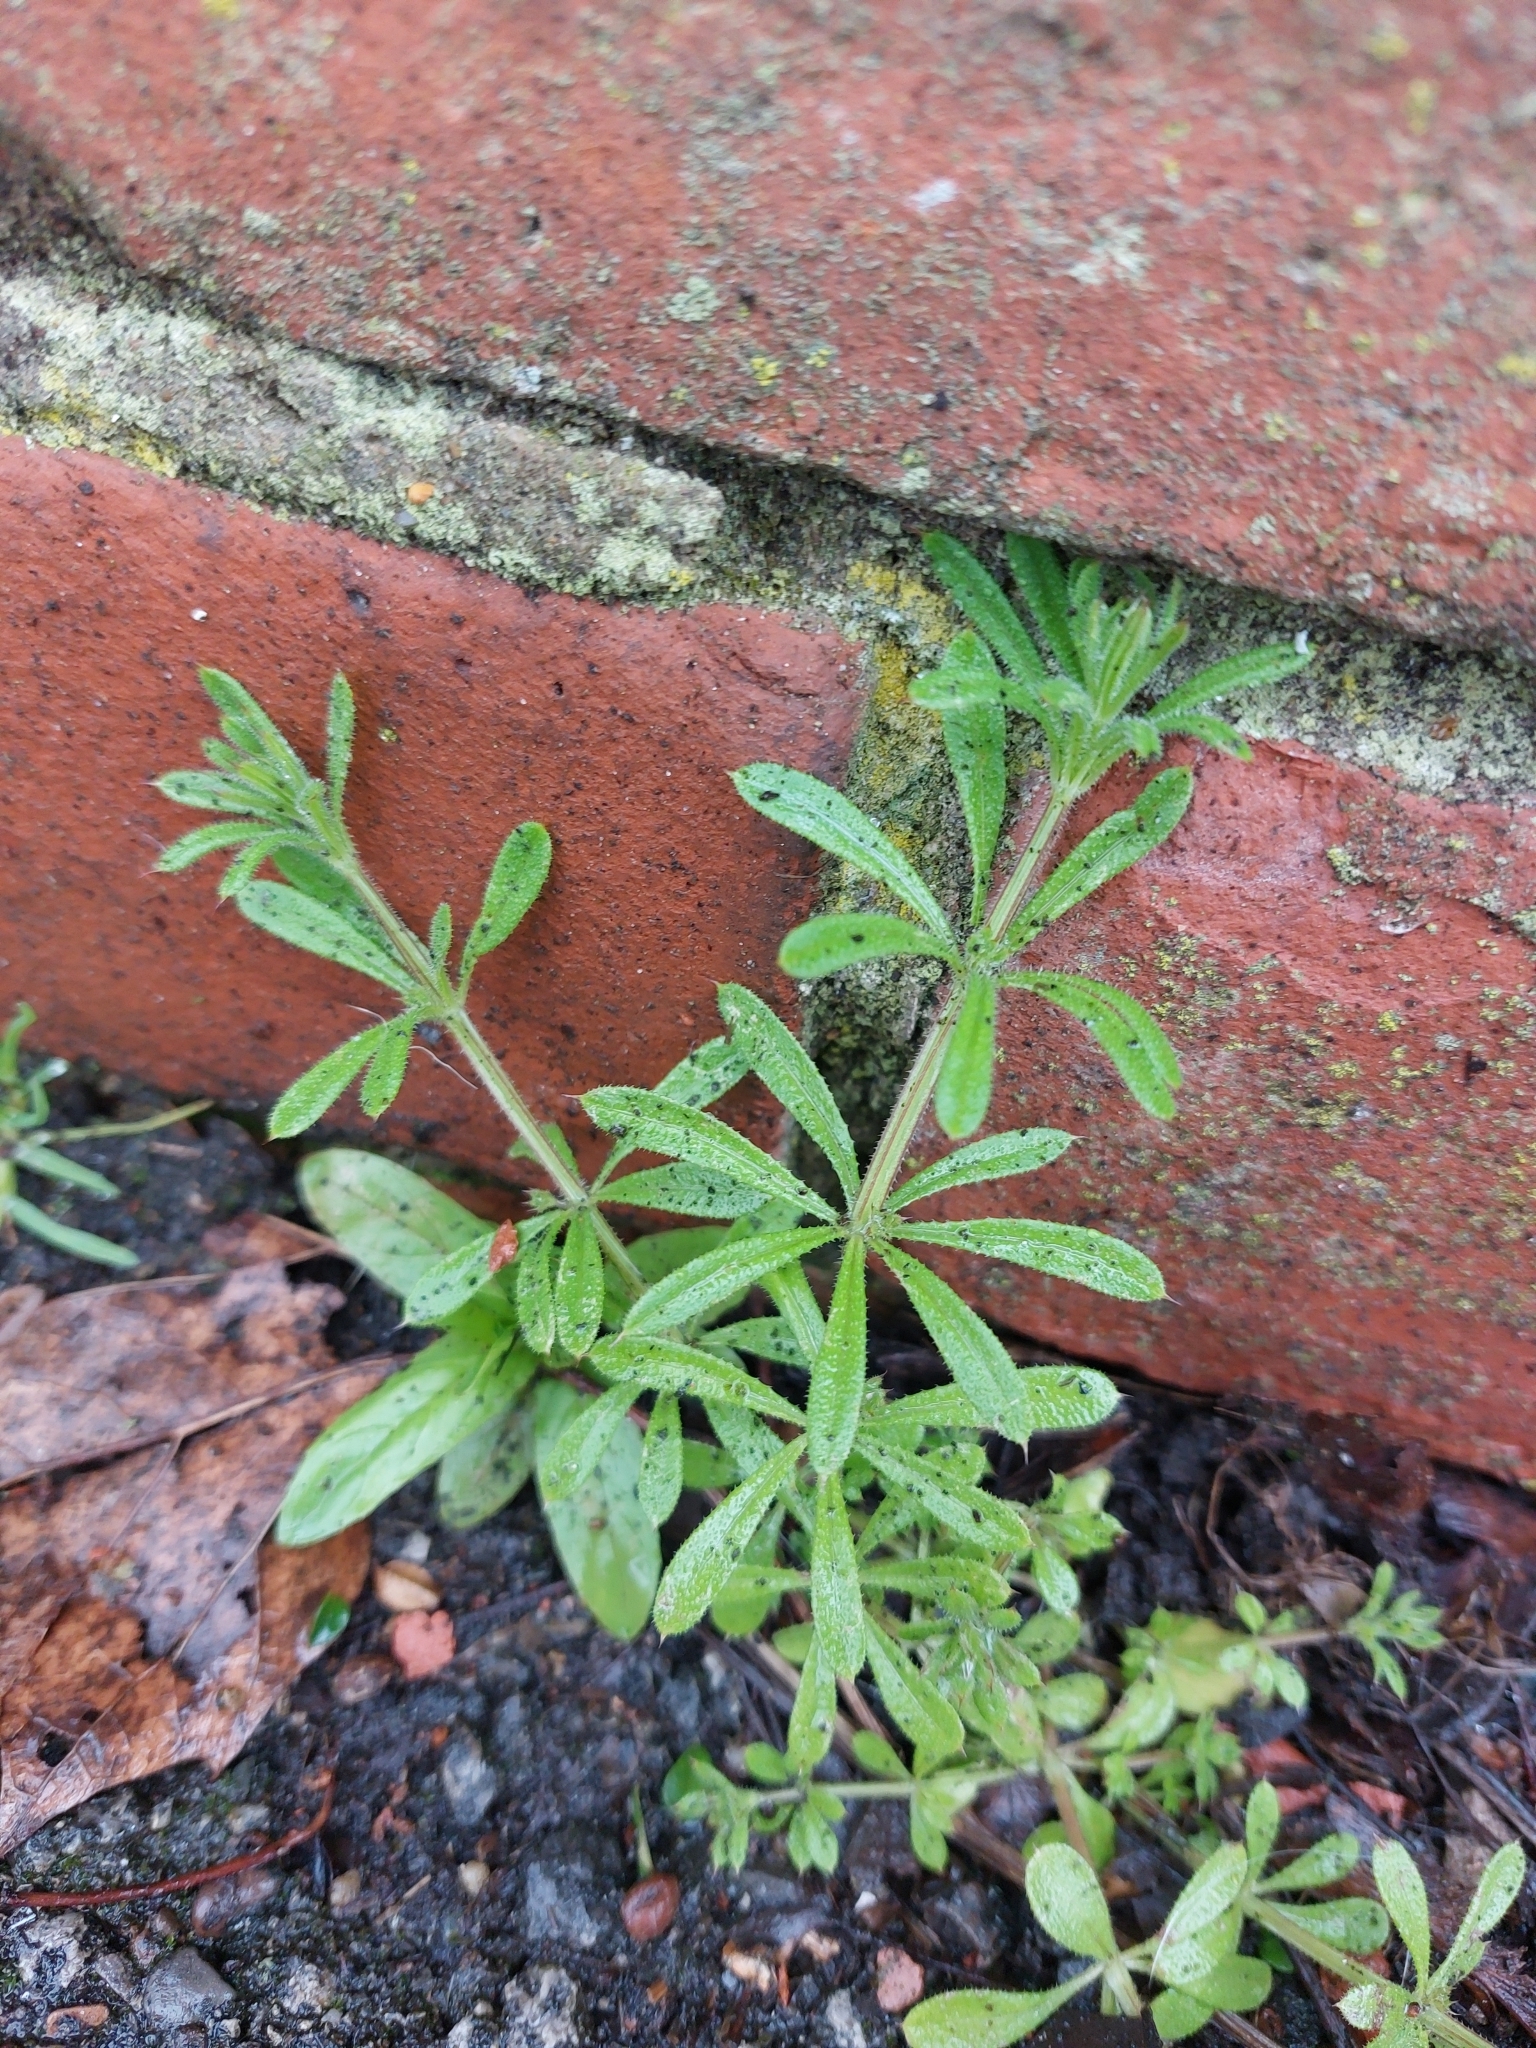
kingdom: Plantae
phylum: Tracheophyta
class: Magnoliopsida
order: Gentianales
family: Rubiaceae
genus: Galium
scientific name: Galium aparine
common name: Cleavers
